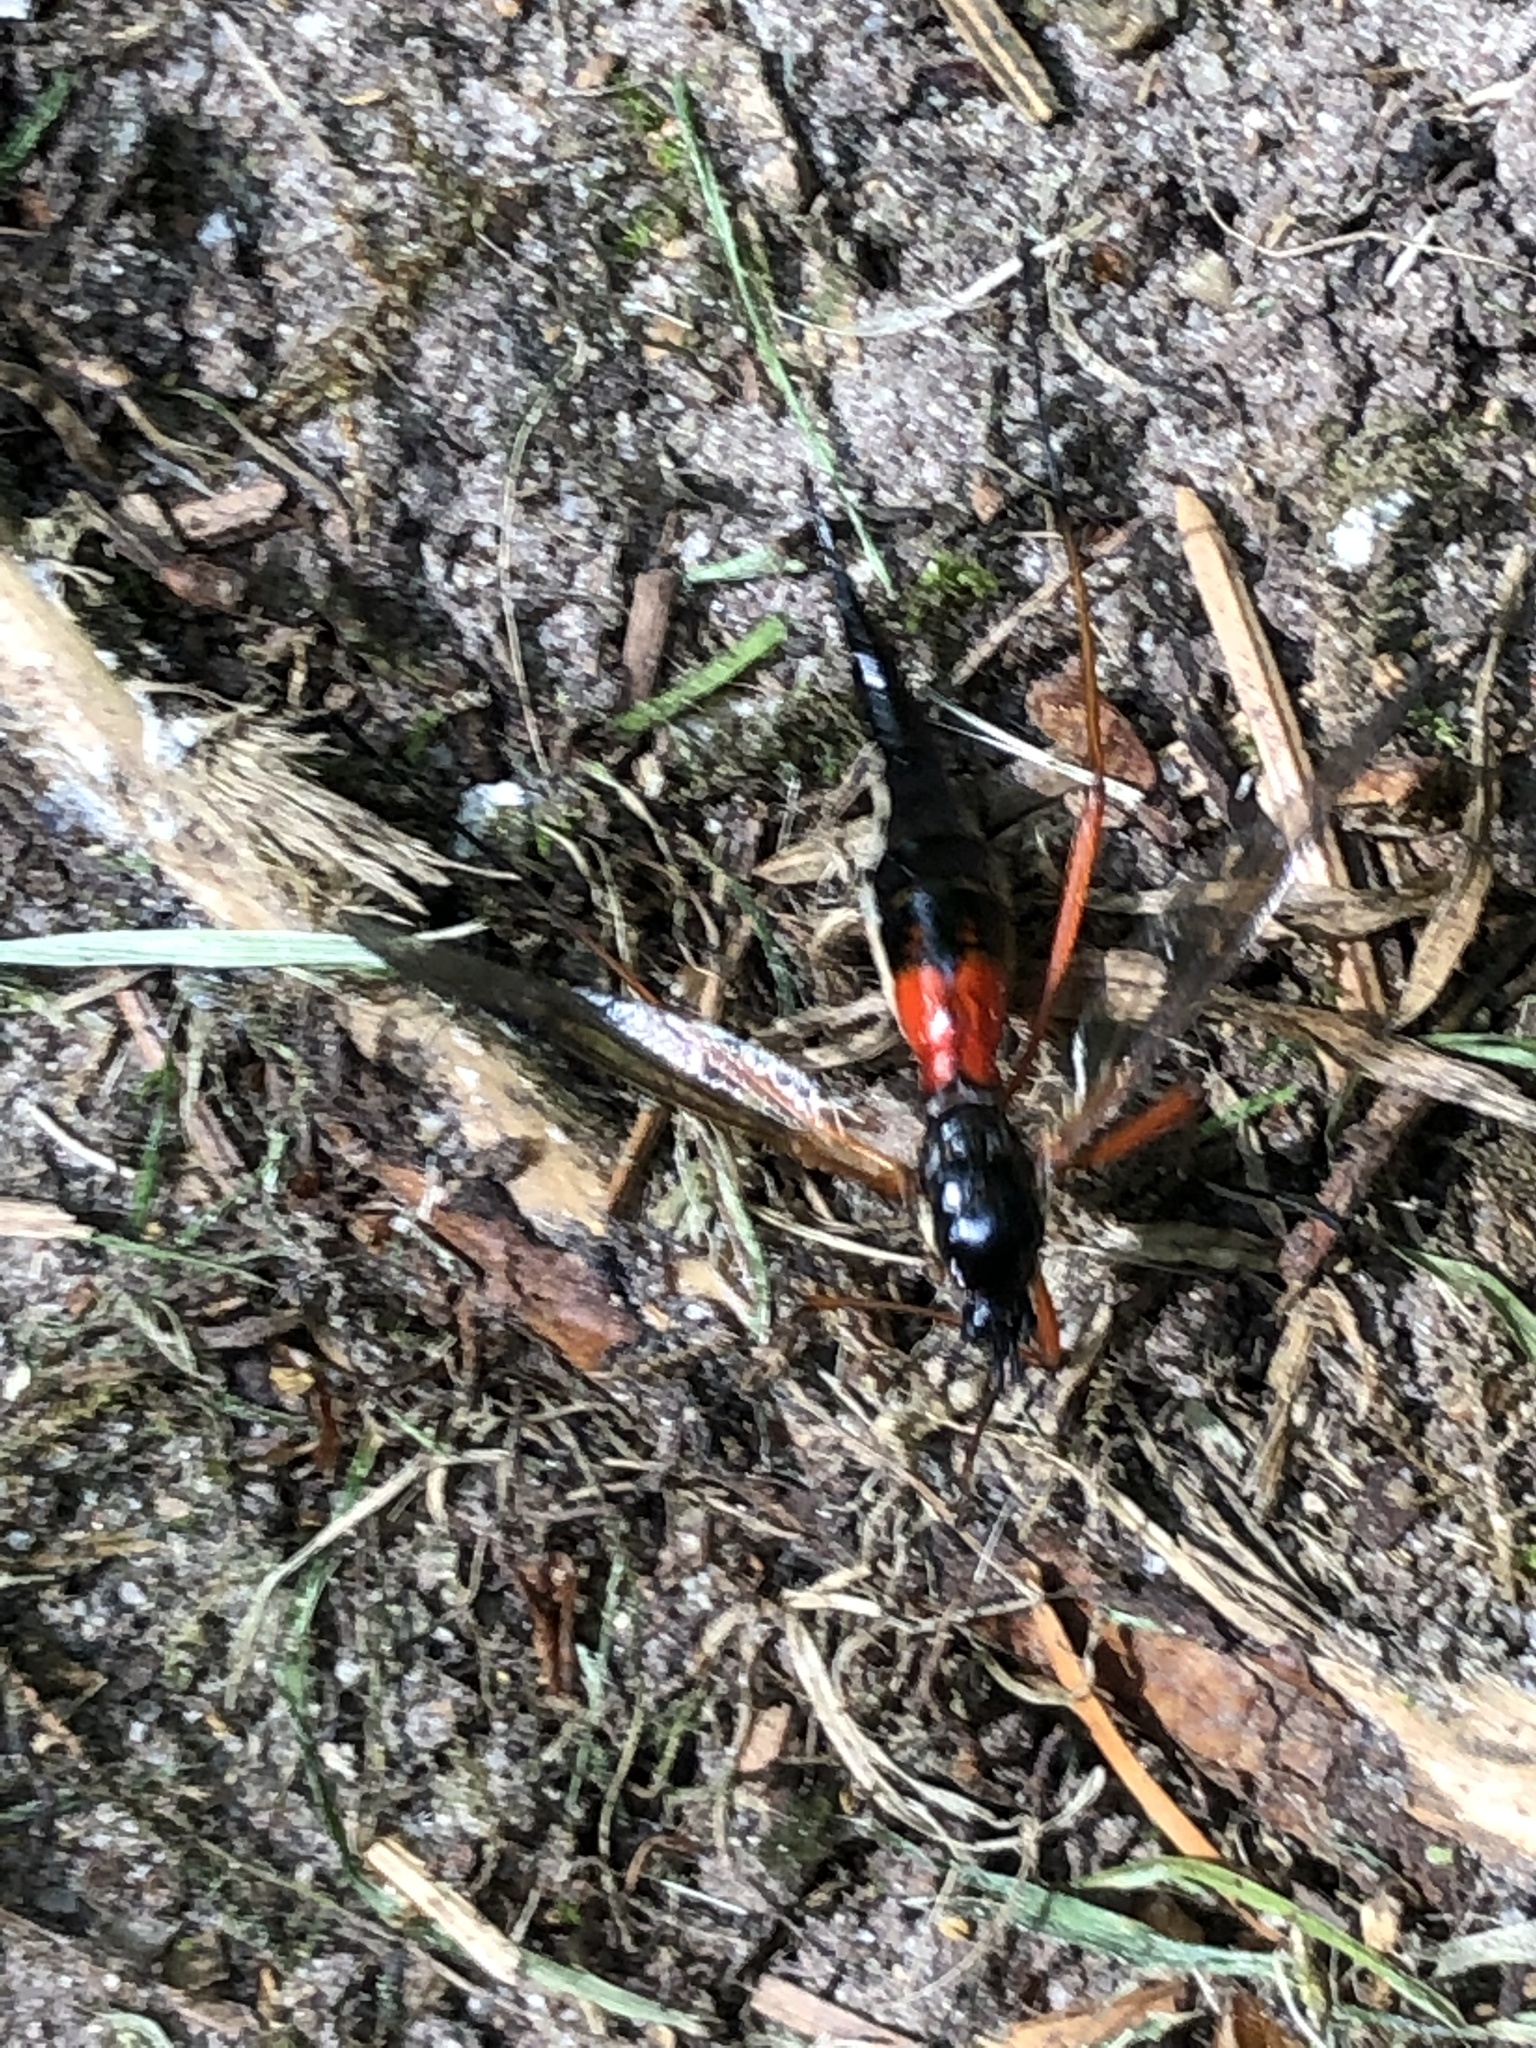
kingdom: Animalia
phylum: Arthropoda
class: Insecta
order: Diptera
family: Tipulidae
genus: Tanyptera
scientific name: Tanyptera atrata
